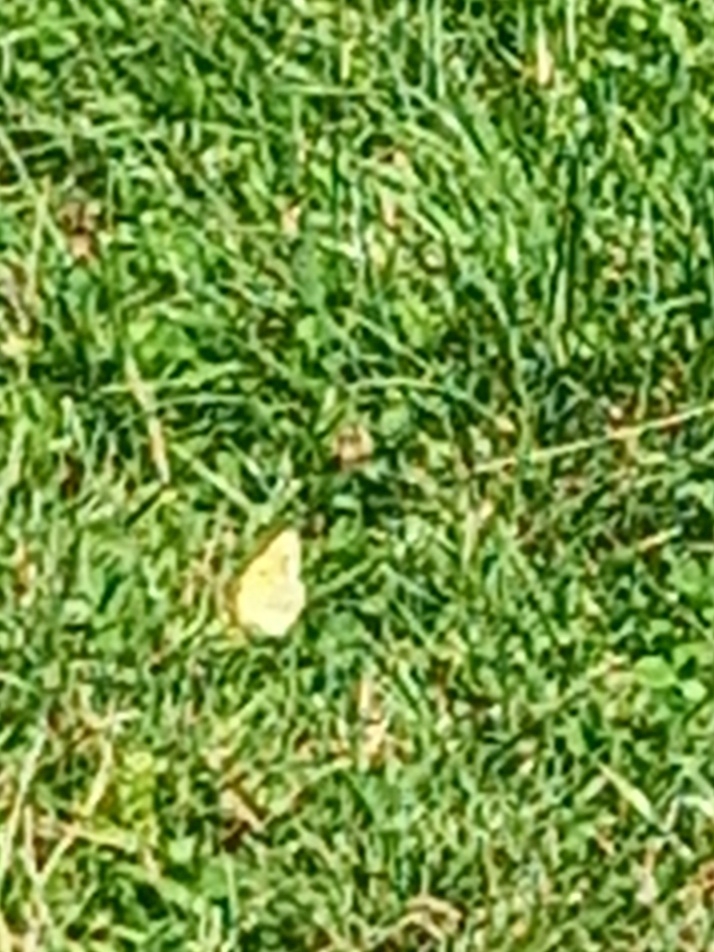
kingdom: Animalia
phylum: Arthropoda
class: Insecta
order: Lepidoptera
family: Pieridae
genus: Colias
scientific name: Colias croceus
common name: Clouded yellow
